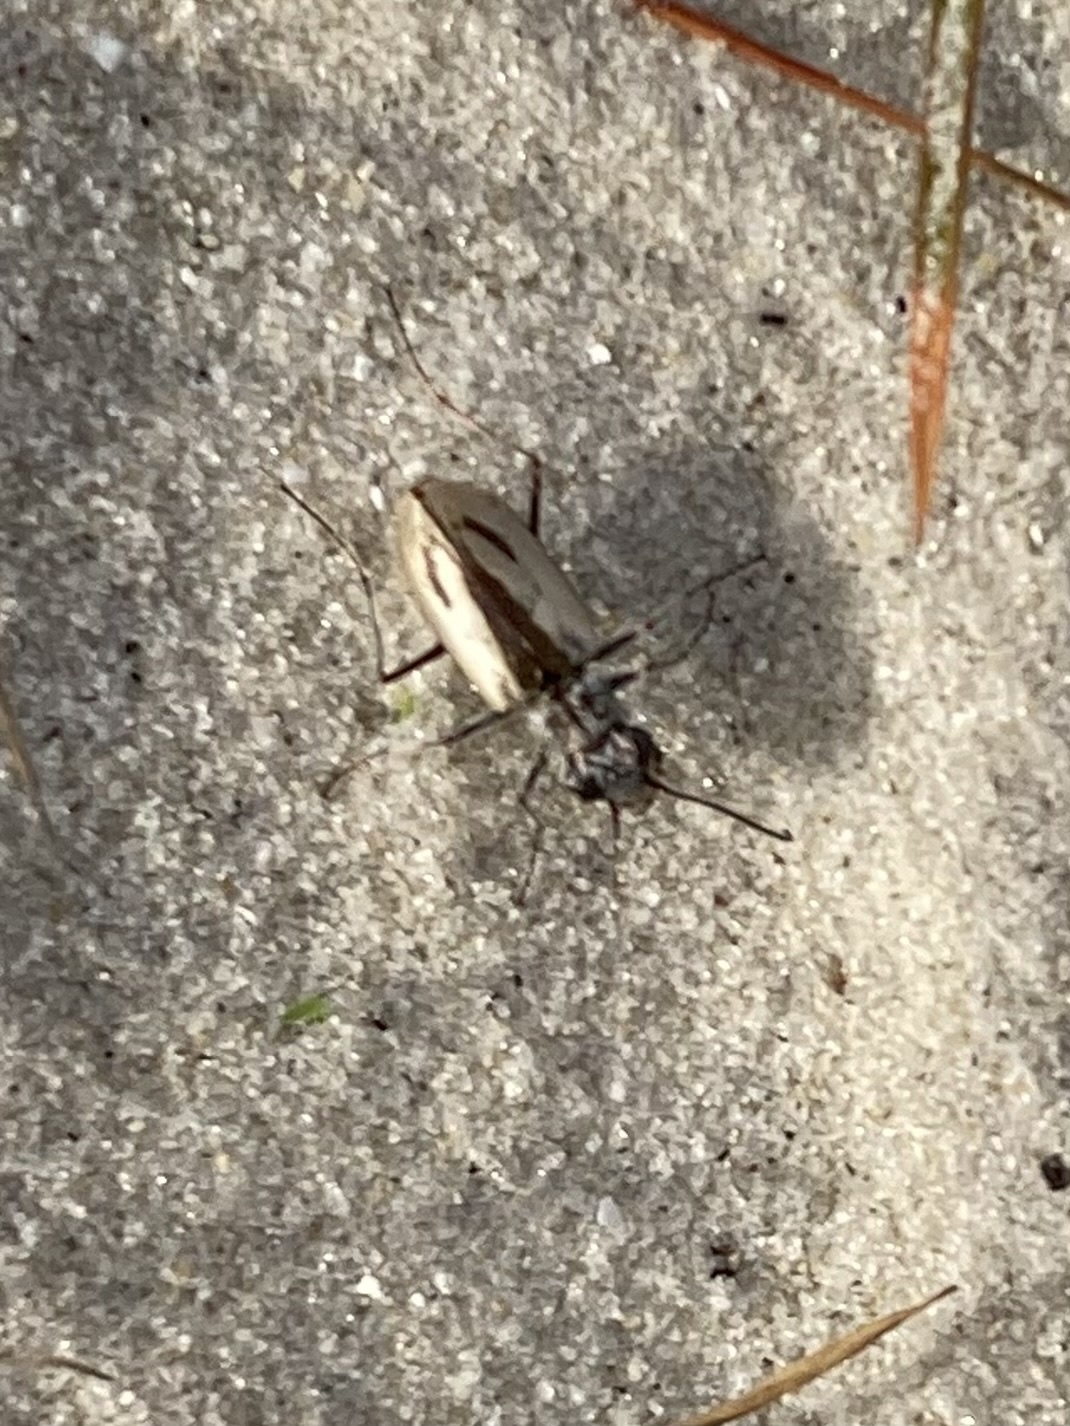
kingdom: Animalia
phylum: Arthropoda
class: Insecta
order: Coleoptera
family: Carabidae
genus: Zecicindela
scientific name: Zecicindela savilli
